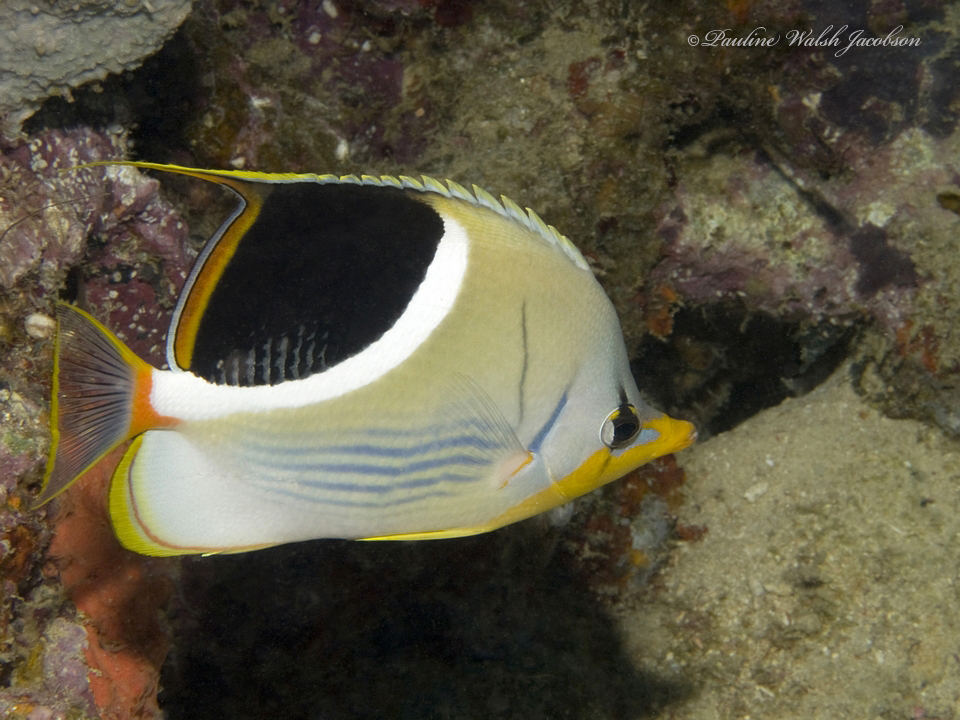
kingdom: Animalia
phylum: Chordata
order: Perciformes
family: Chaetodontidae
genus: Chaetodon
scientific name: Chaetodon ephippium
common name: Saddled butterflyfish
